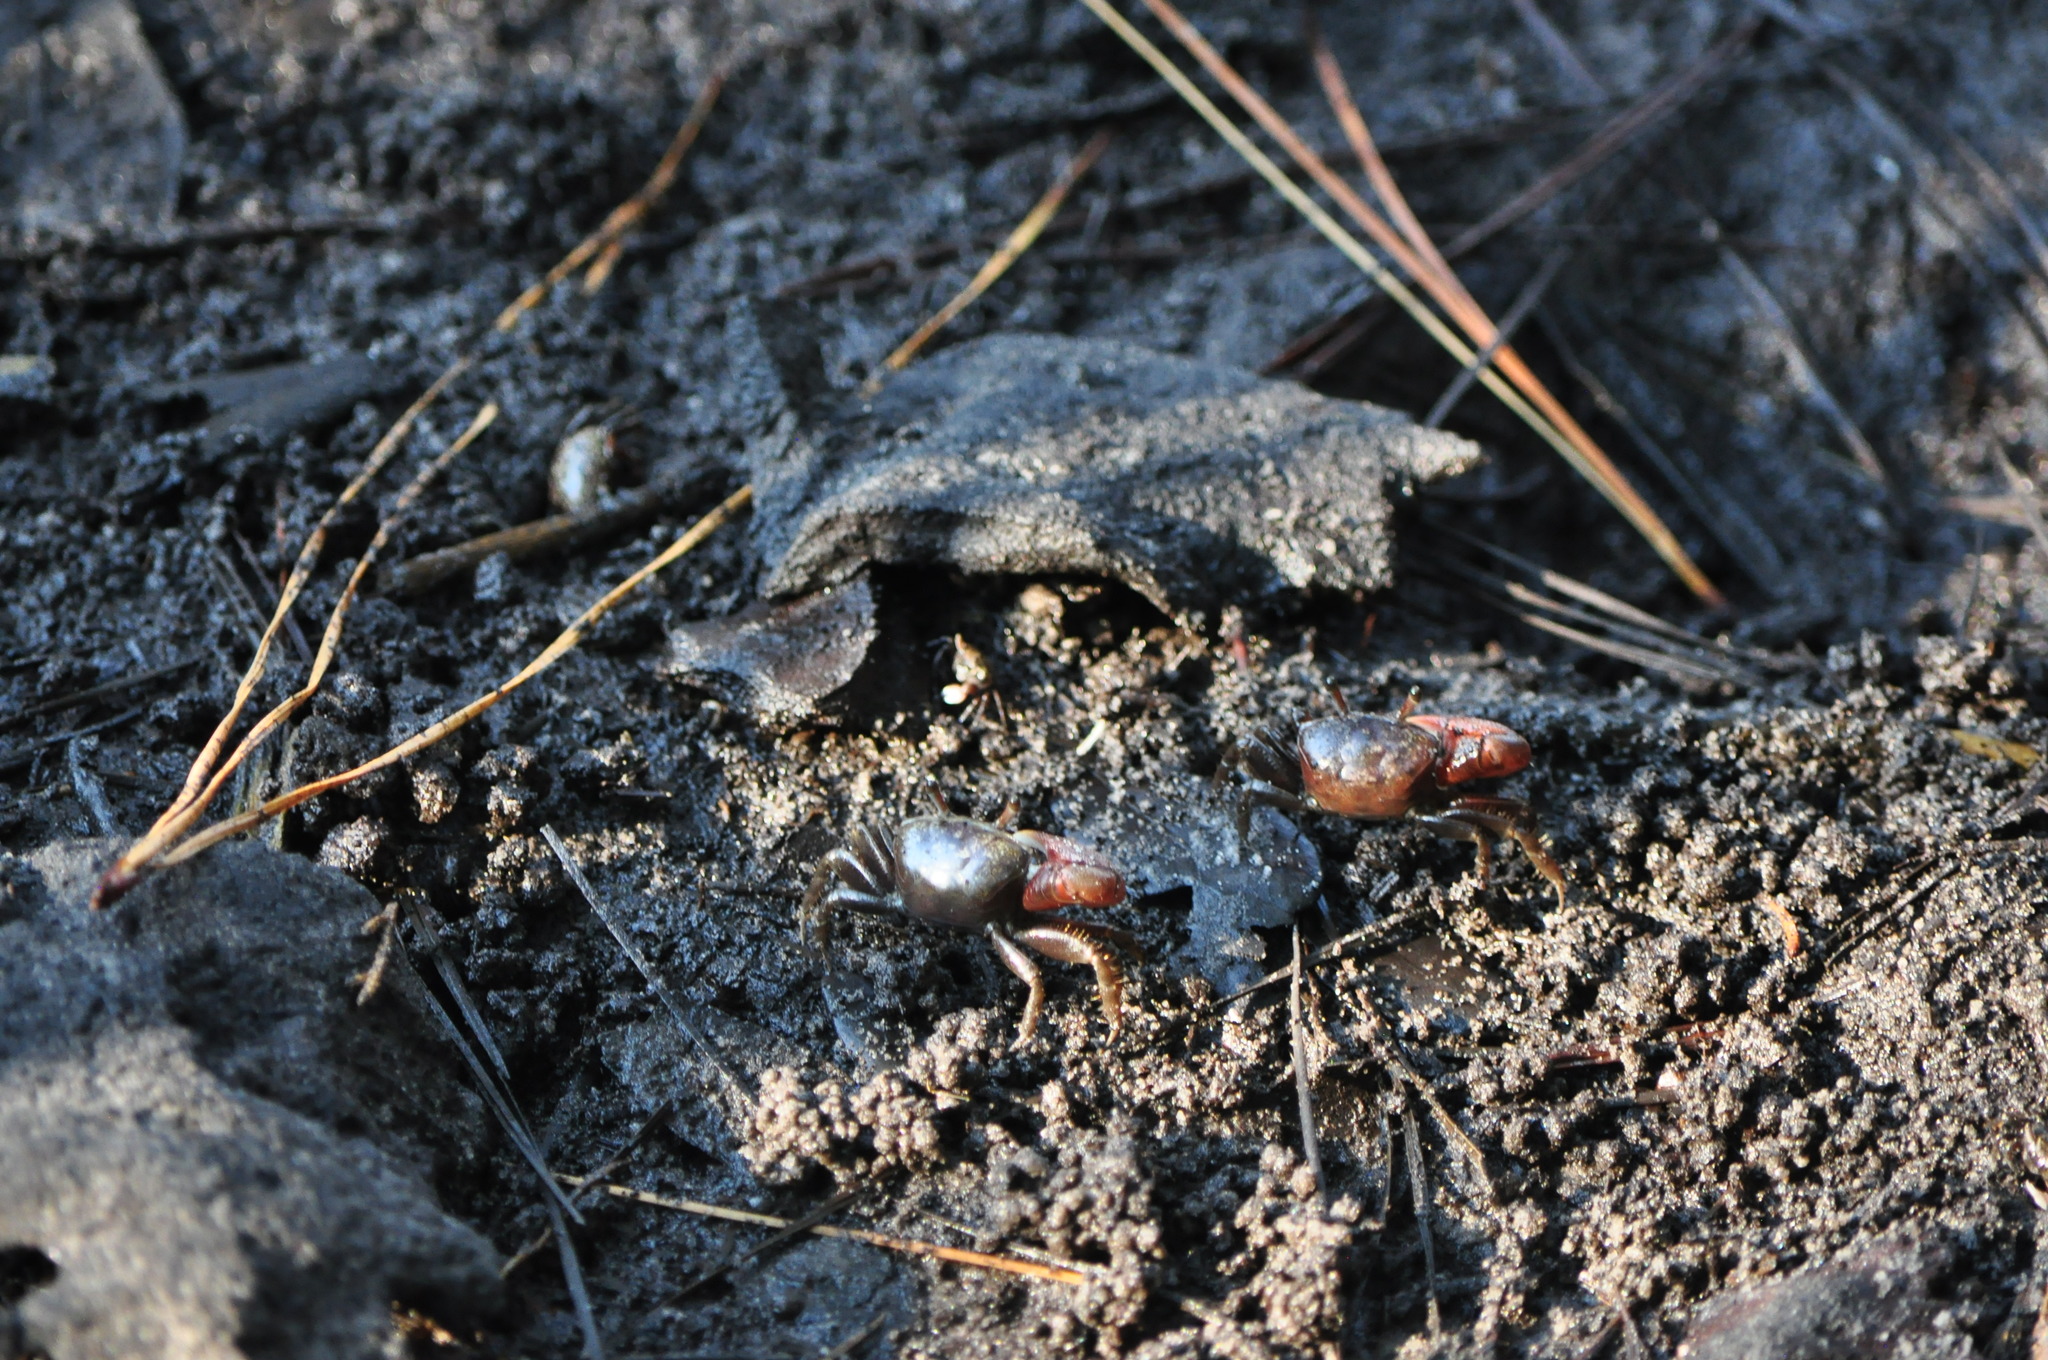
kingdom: Animalia
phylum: Arthropoda
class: Malacostraca
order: Decapoda
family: Ocypodidae
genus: Leptuca
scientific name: Leptuca pugilator
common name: Atlantic sand fiddler crab
